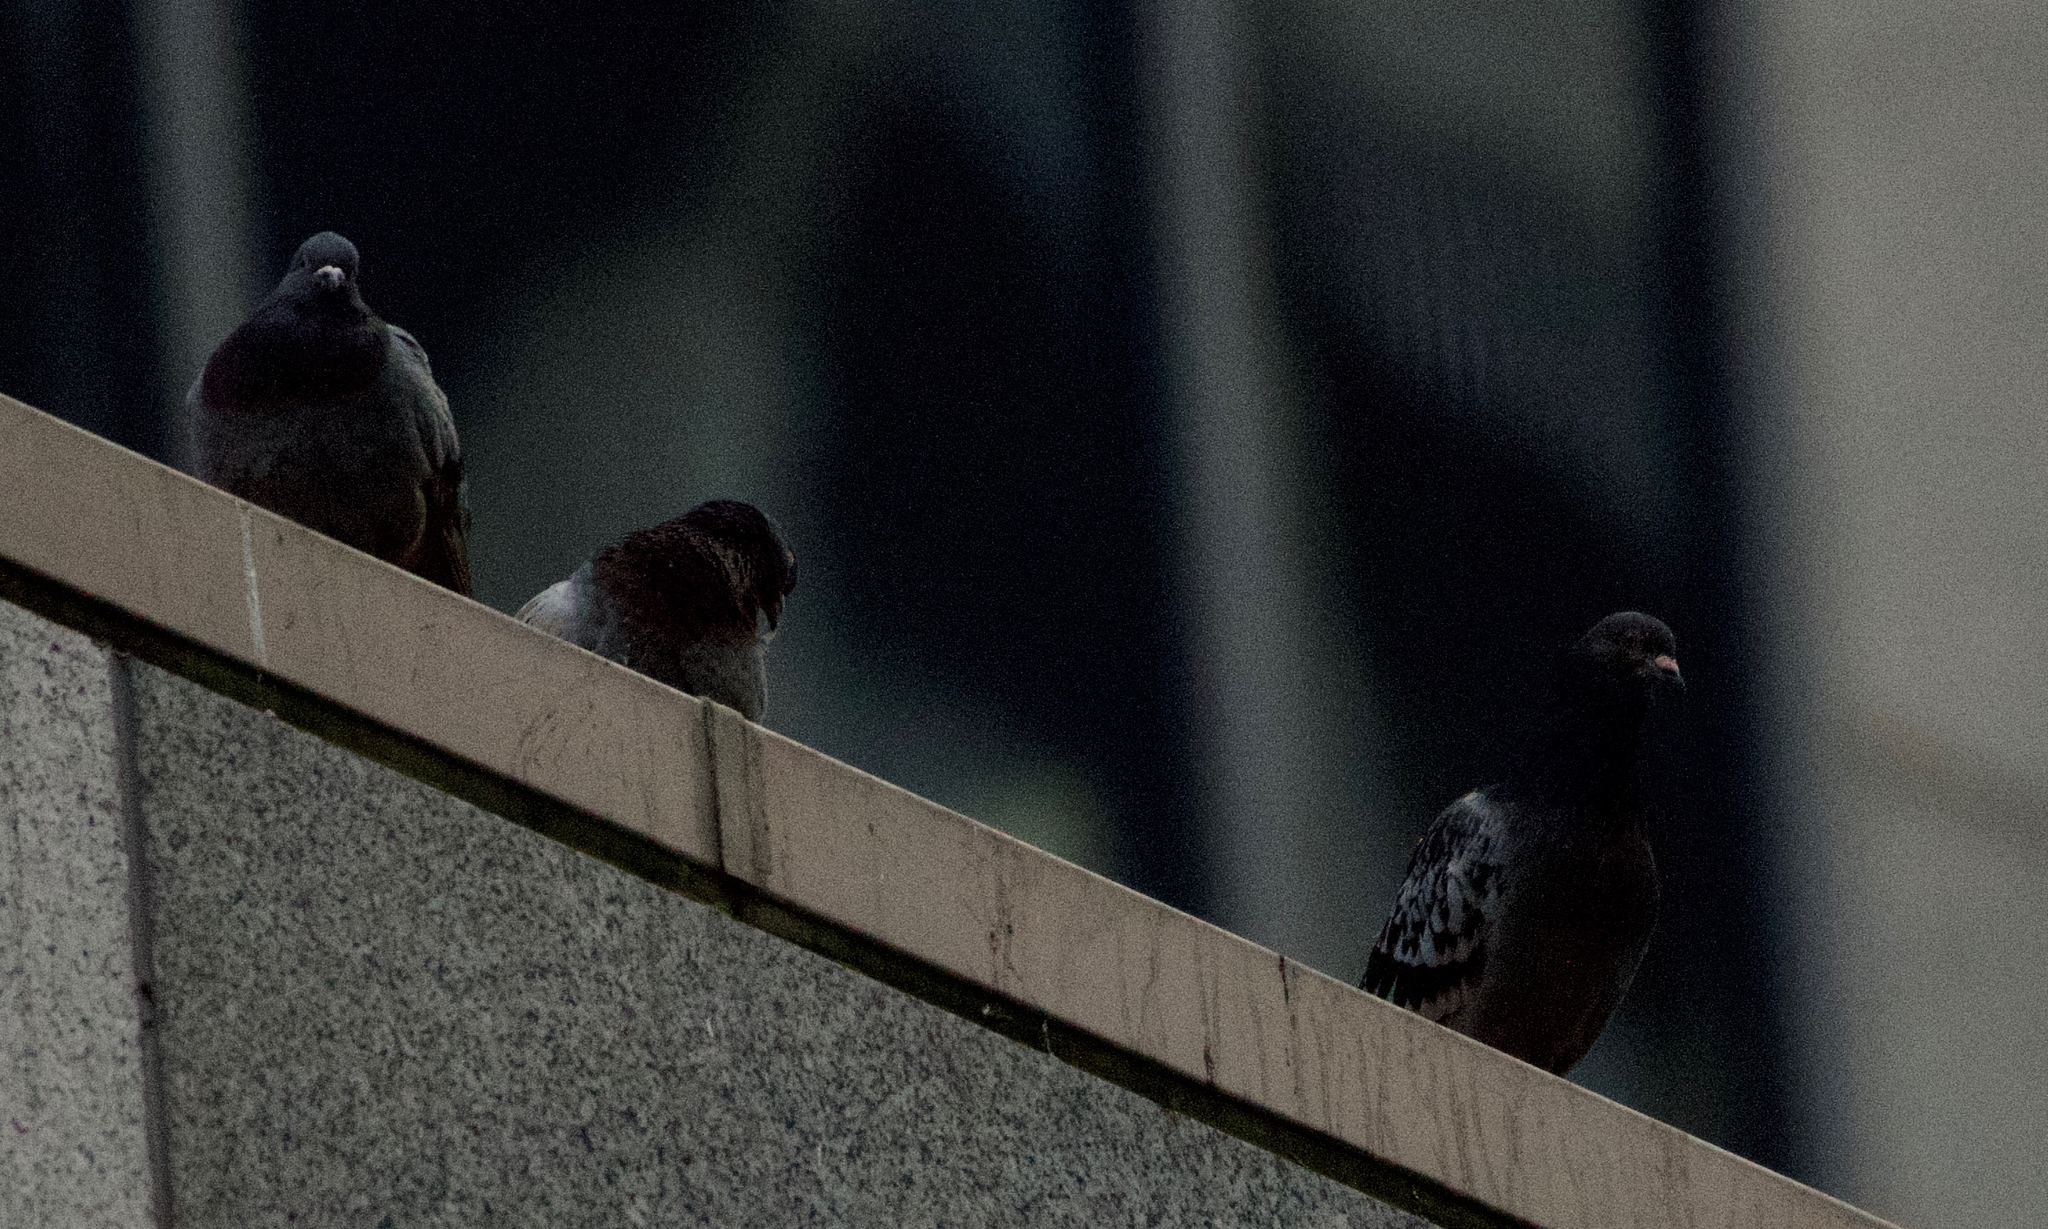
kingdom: Animalia
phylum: Chordata
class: Aves
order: Columbiformes
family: Columbidae
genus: Columba
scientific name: Columba livia
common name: Rock pigeon
